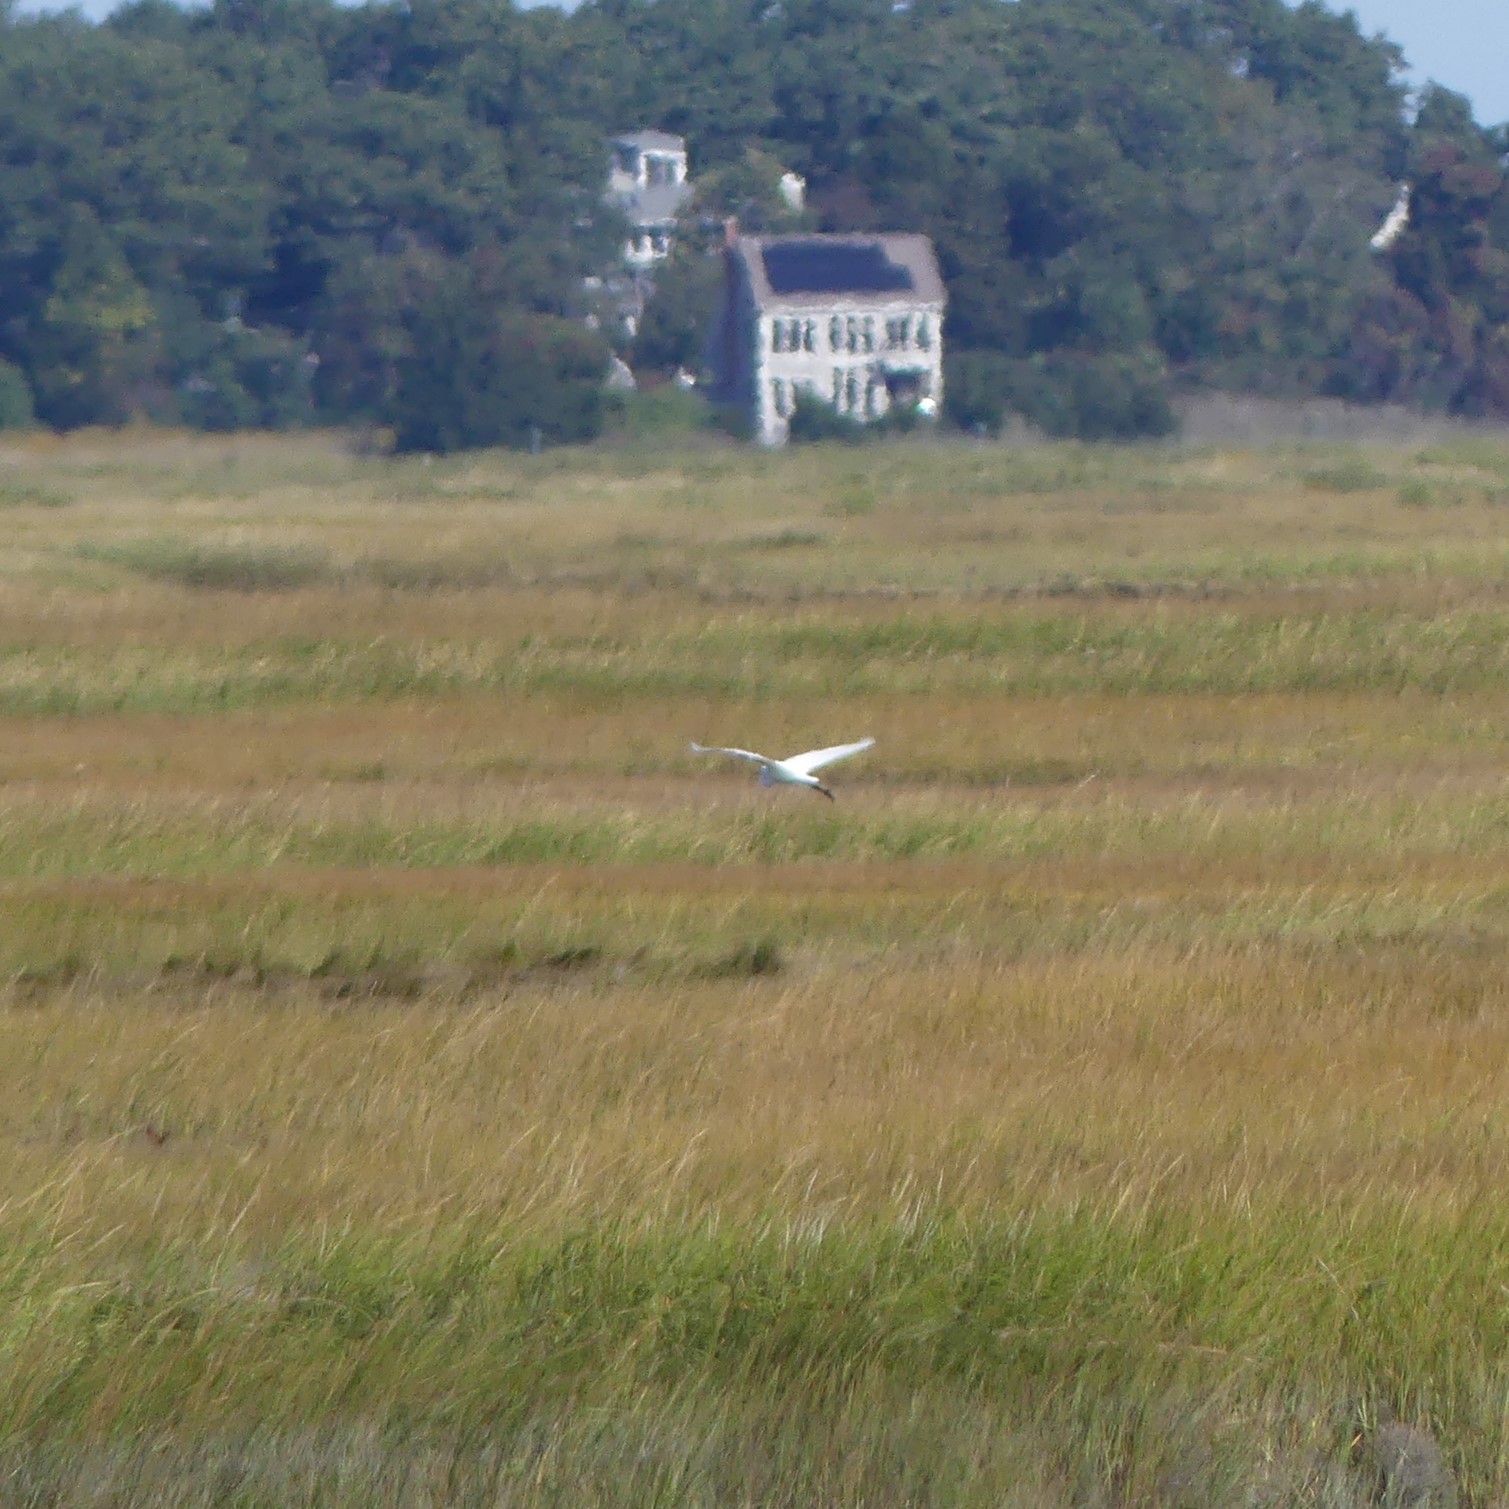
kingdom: Animalia
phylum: Chordata
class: Aves
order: Pelecaniformes
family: Ardeidae
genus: Ardea
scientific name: Ardea alba
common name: Great egret
